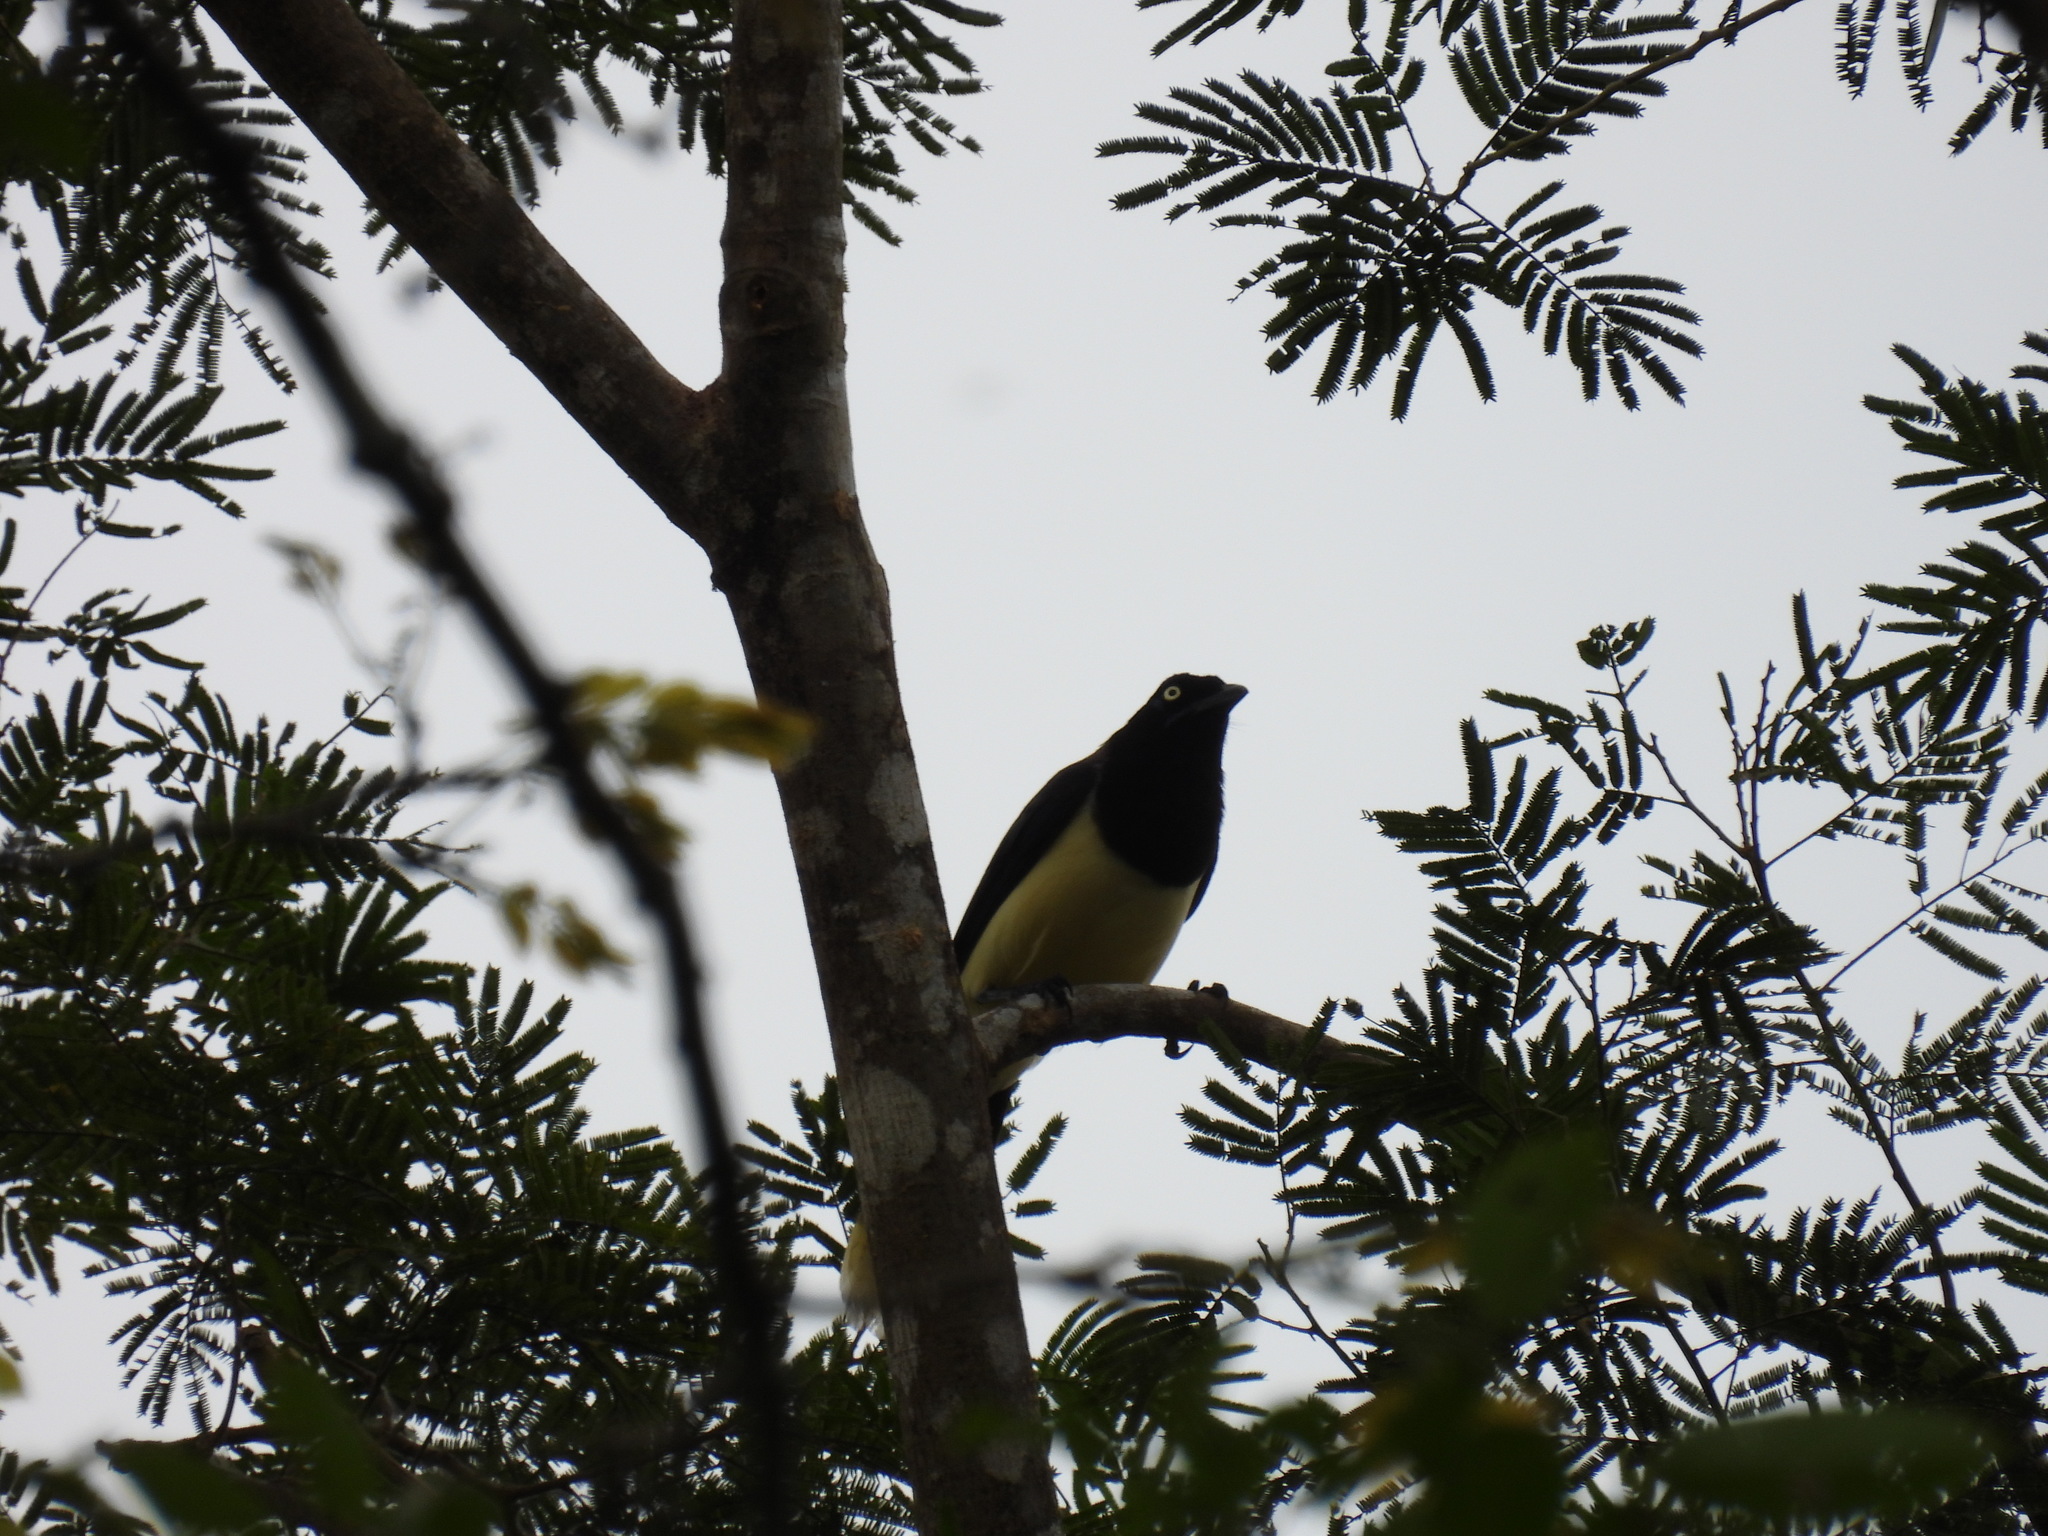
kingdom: Animalia
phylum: Chordata
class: Aves
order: Passeriformes
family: Corvidae
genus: Cyanocorax
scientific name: Cyanocorax affinis
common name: Black-chested jay
